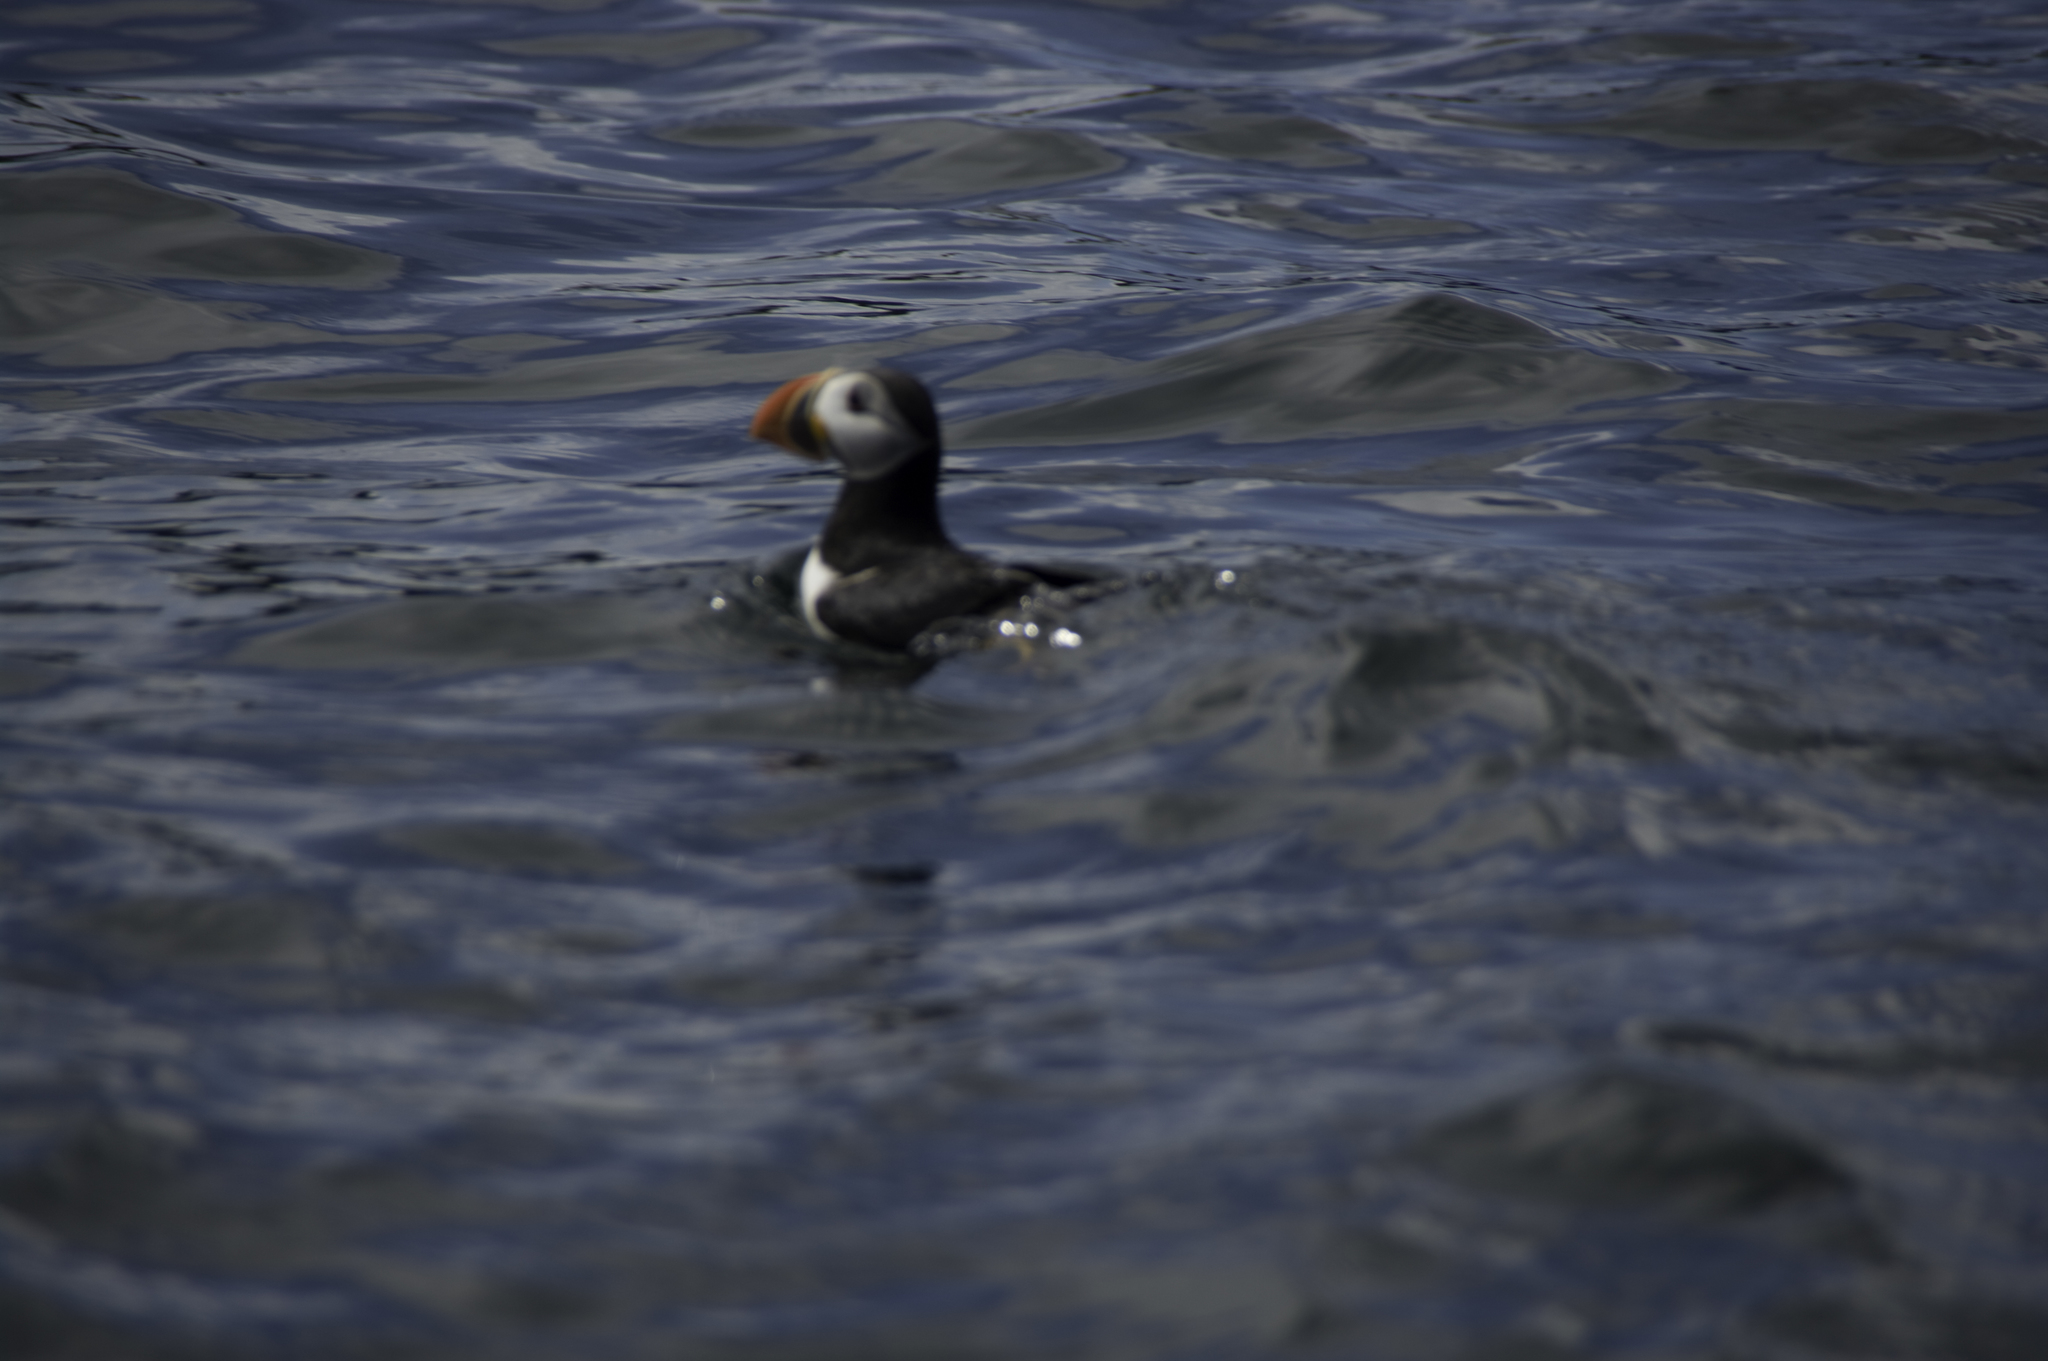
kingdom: Animalia
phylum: Chordata
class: Aves
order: Charadriiformes
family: Alcidae
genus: Fratercula
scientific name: Fratercula arctica
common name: Atlantic puffin
